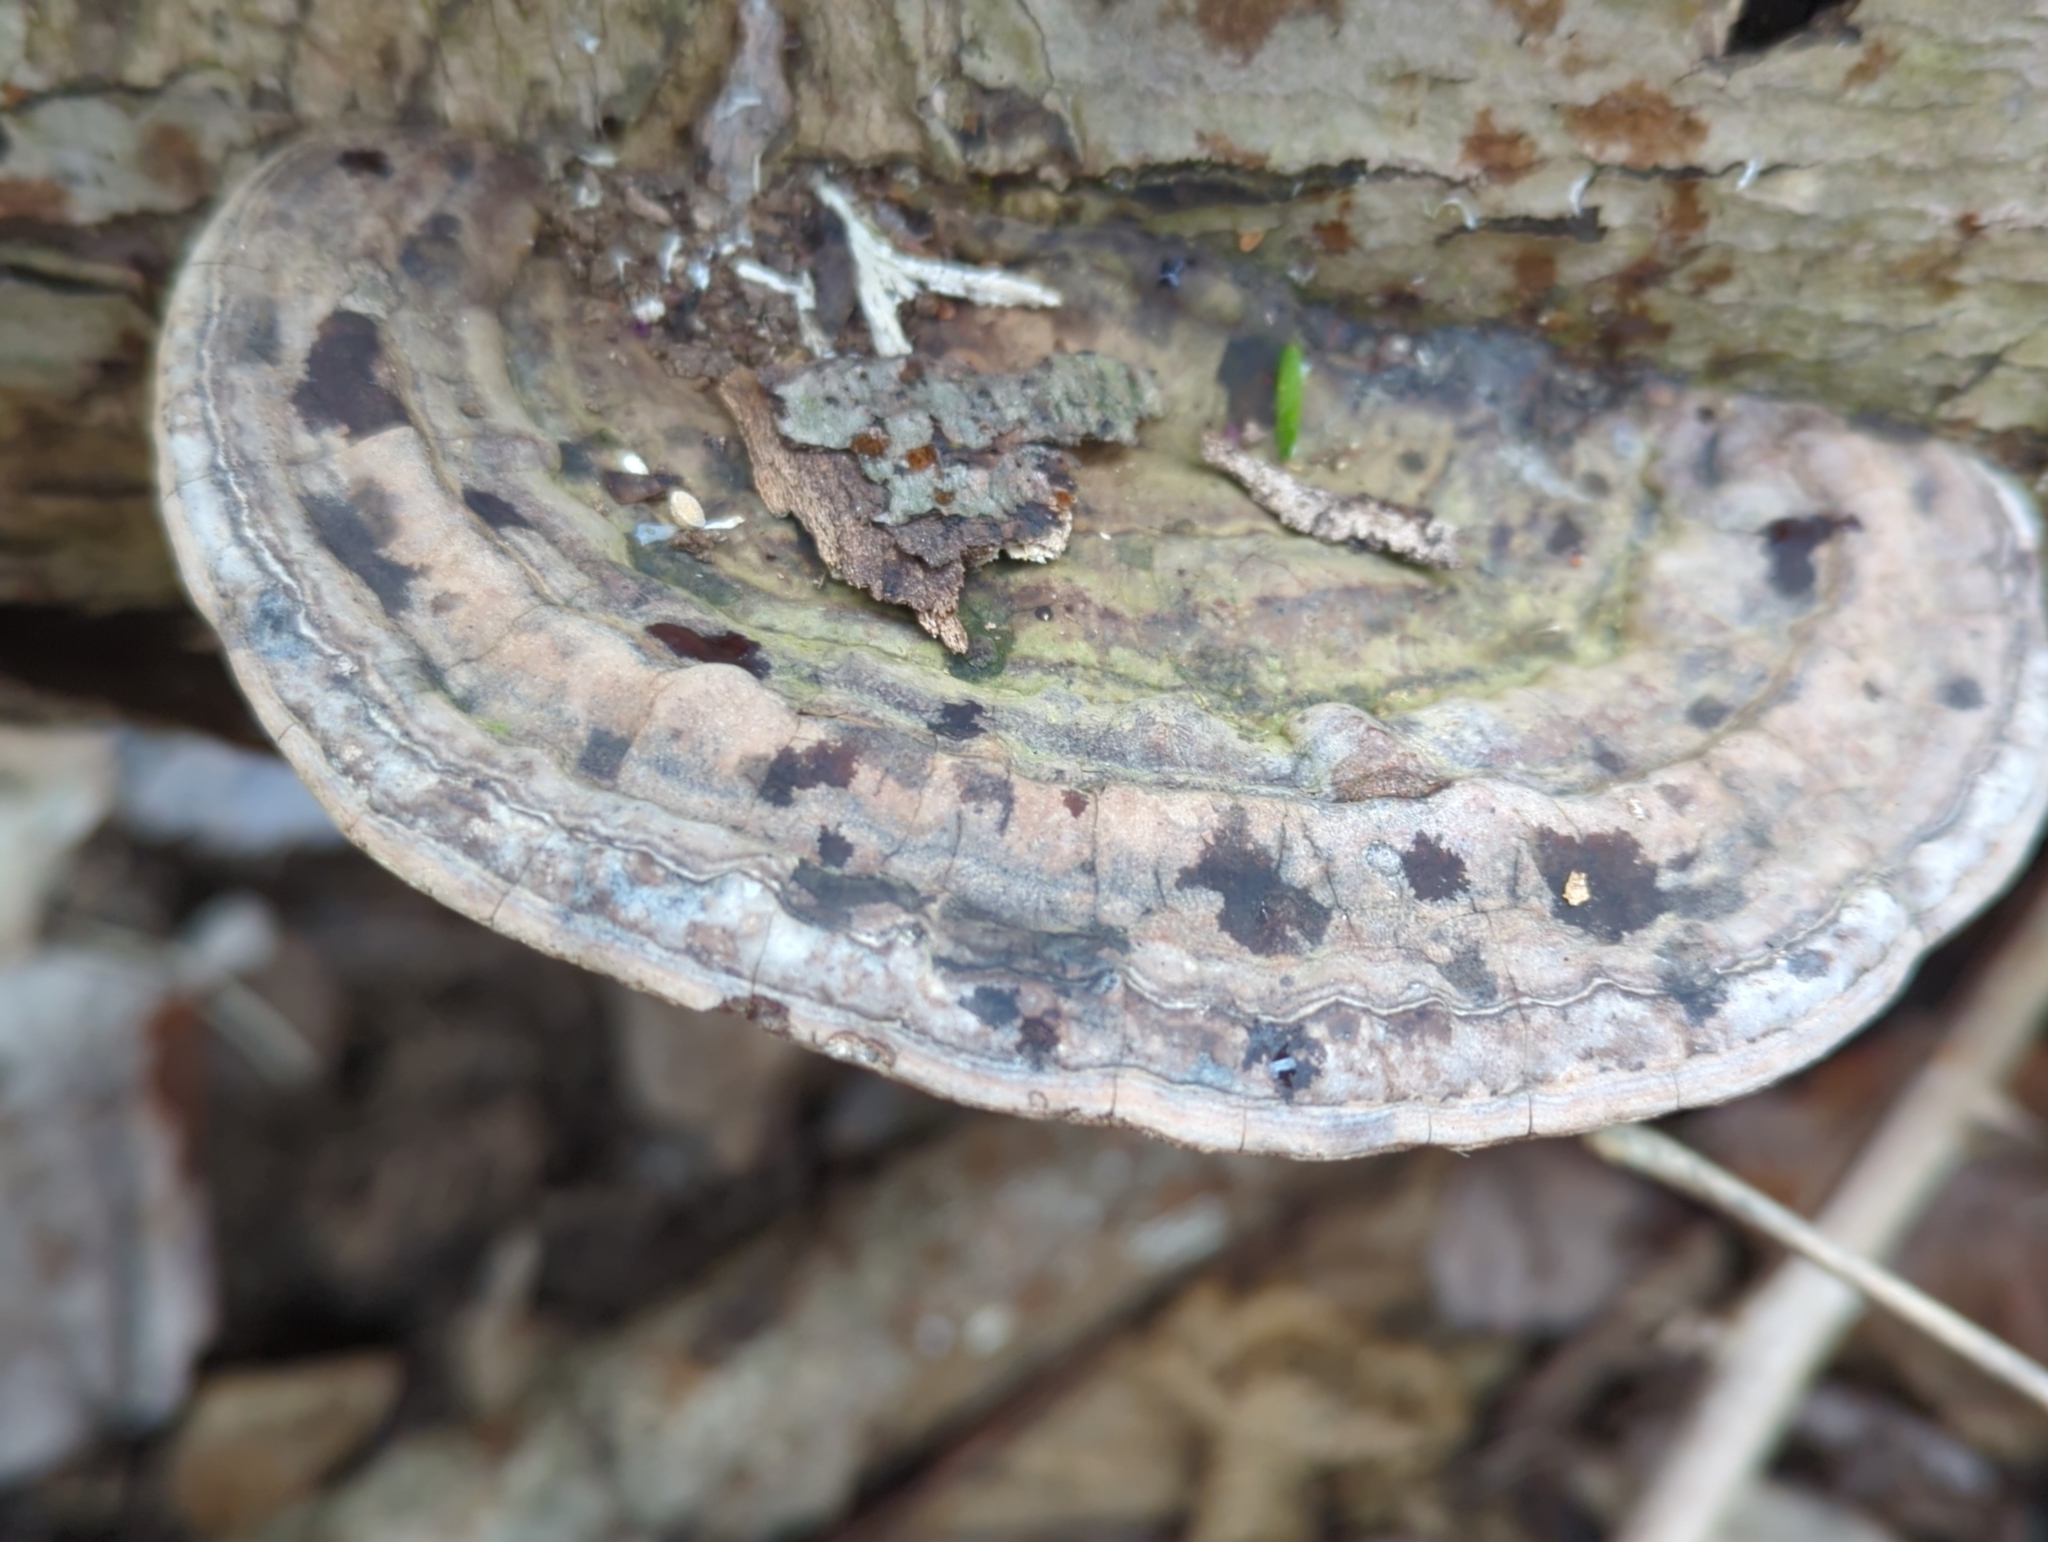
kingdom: Fungi
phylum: Basidiomycota
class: Agaricomycetes
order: Polyporales
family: Polyporaceae
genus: Ganoderma
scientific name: Ganoderma lobatum
